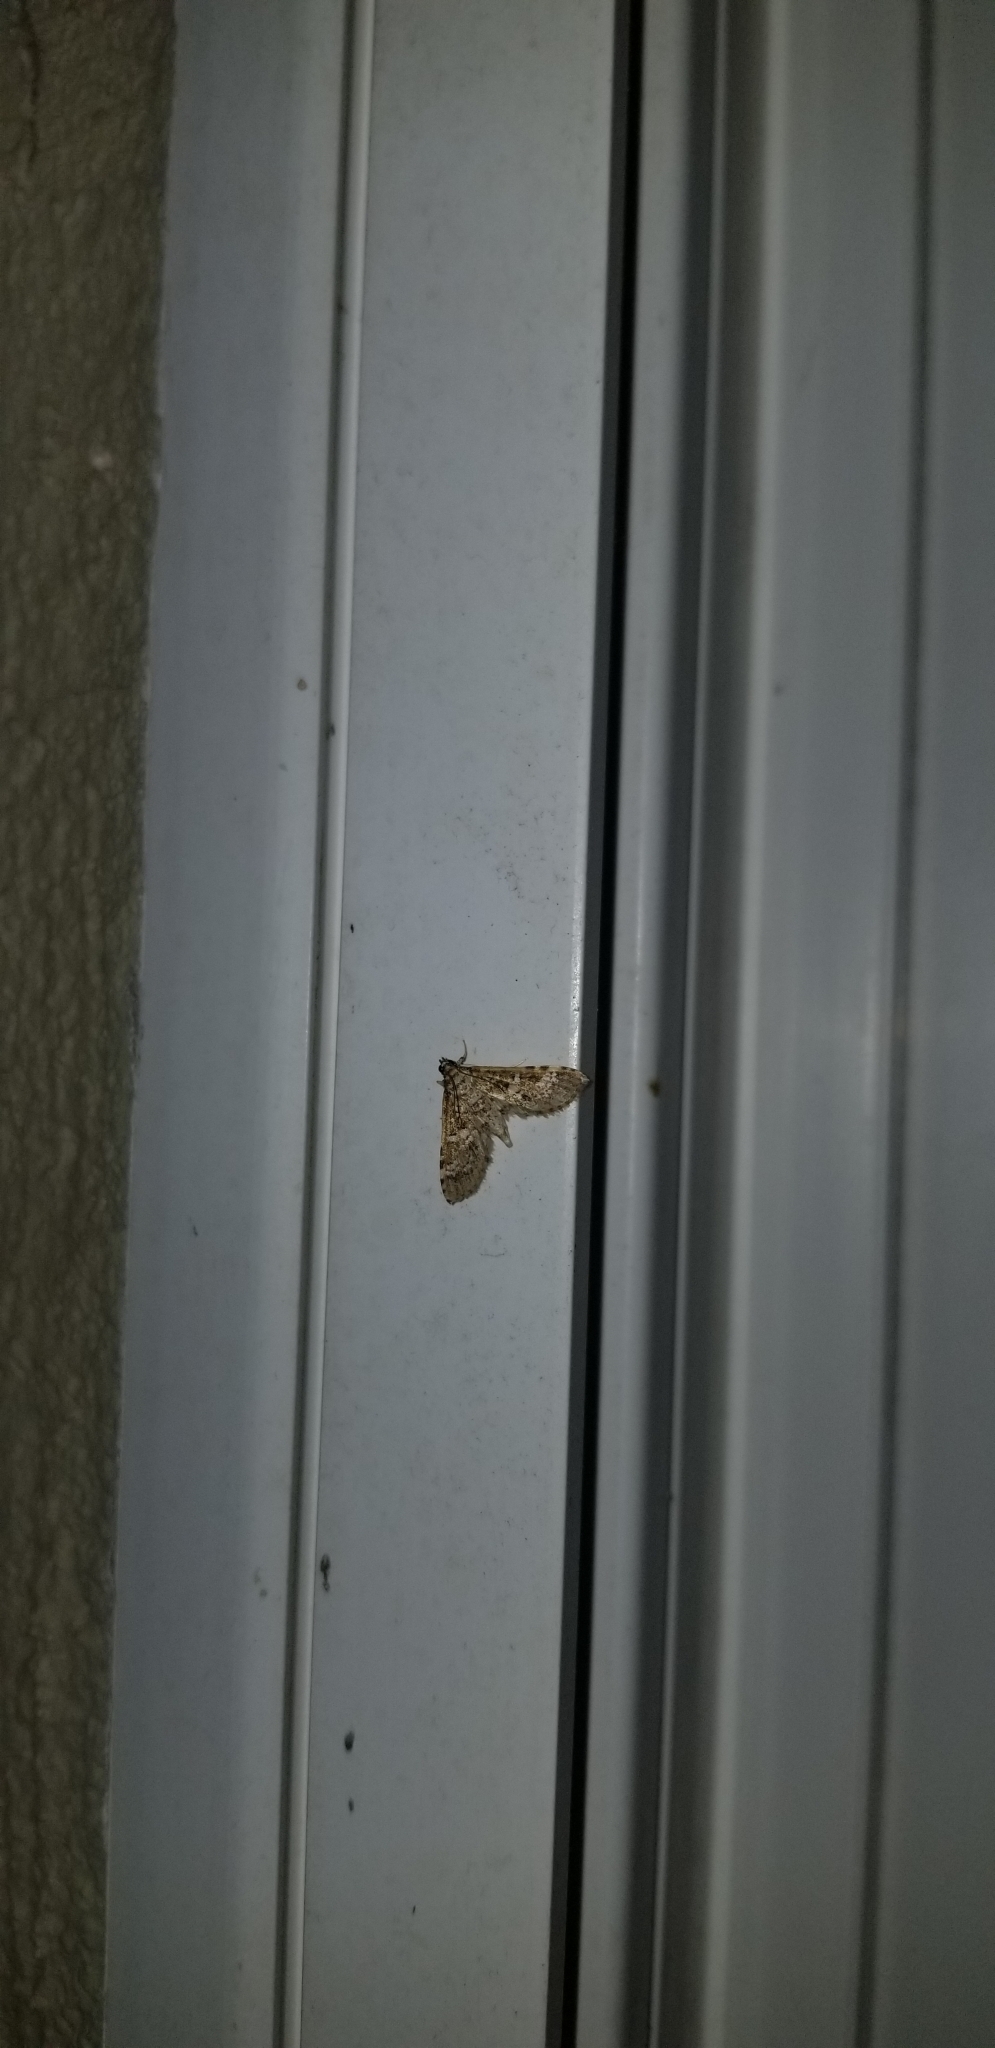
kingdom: Animalia
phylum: Arthropoda
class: Insecta
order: Lepidoptera
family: Crambidae
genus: Samea
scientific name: Samea multiplicalis
